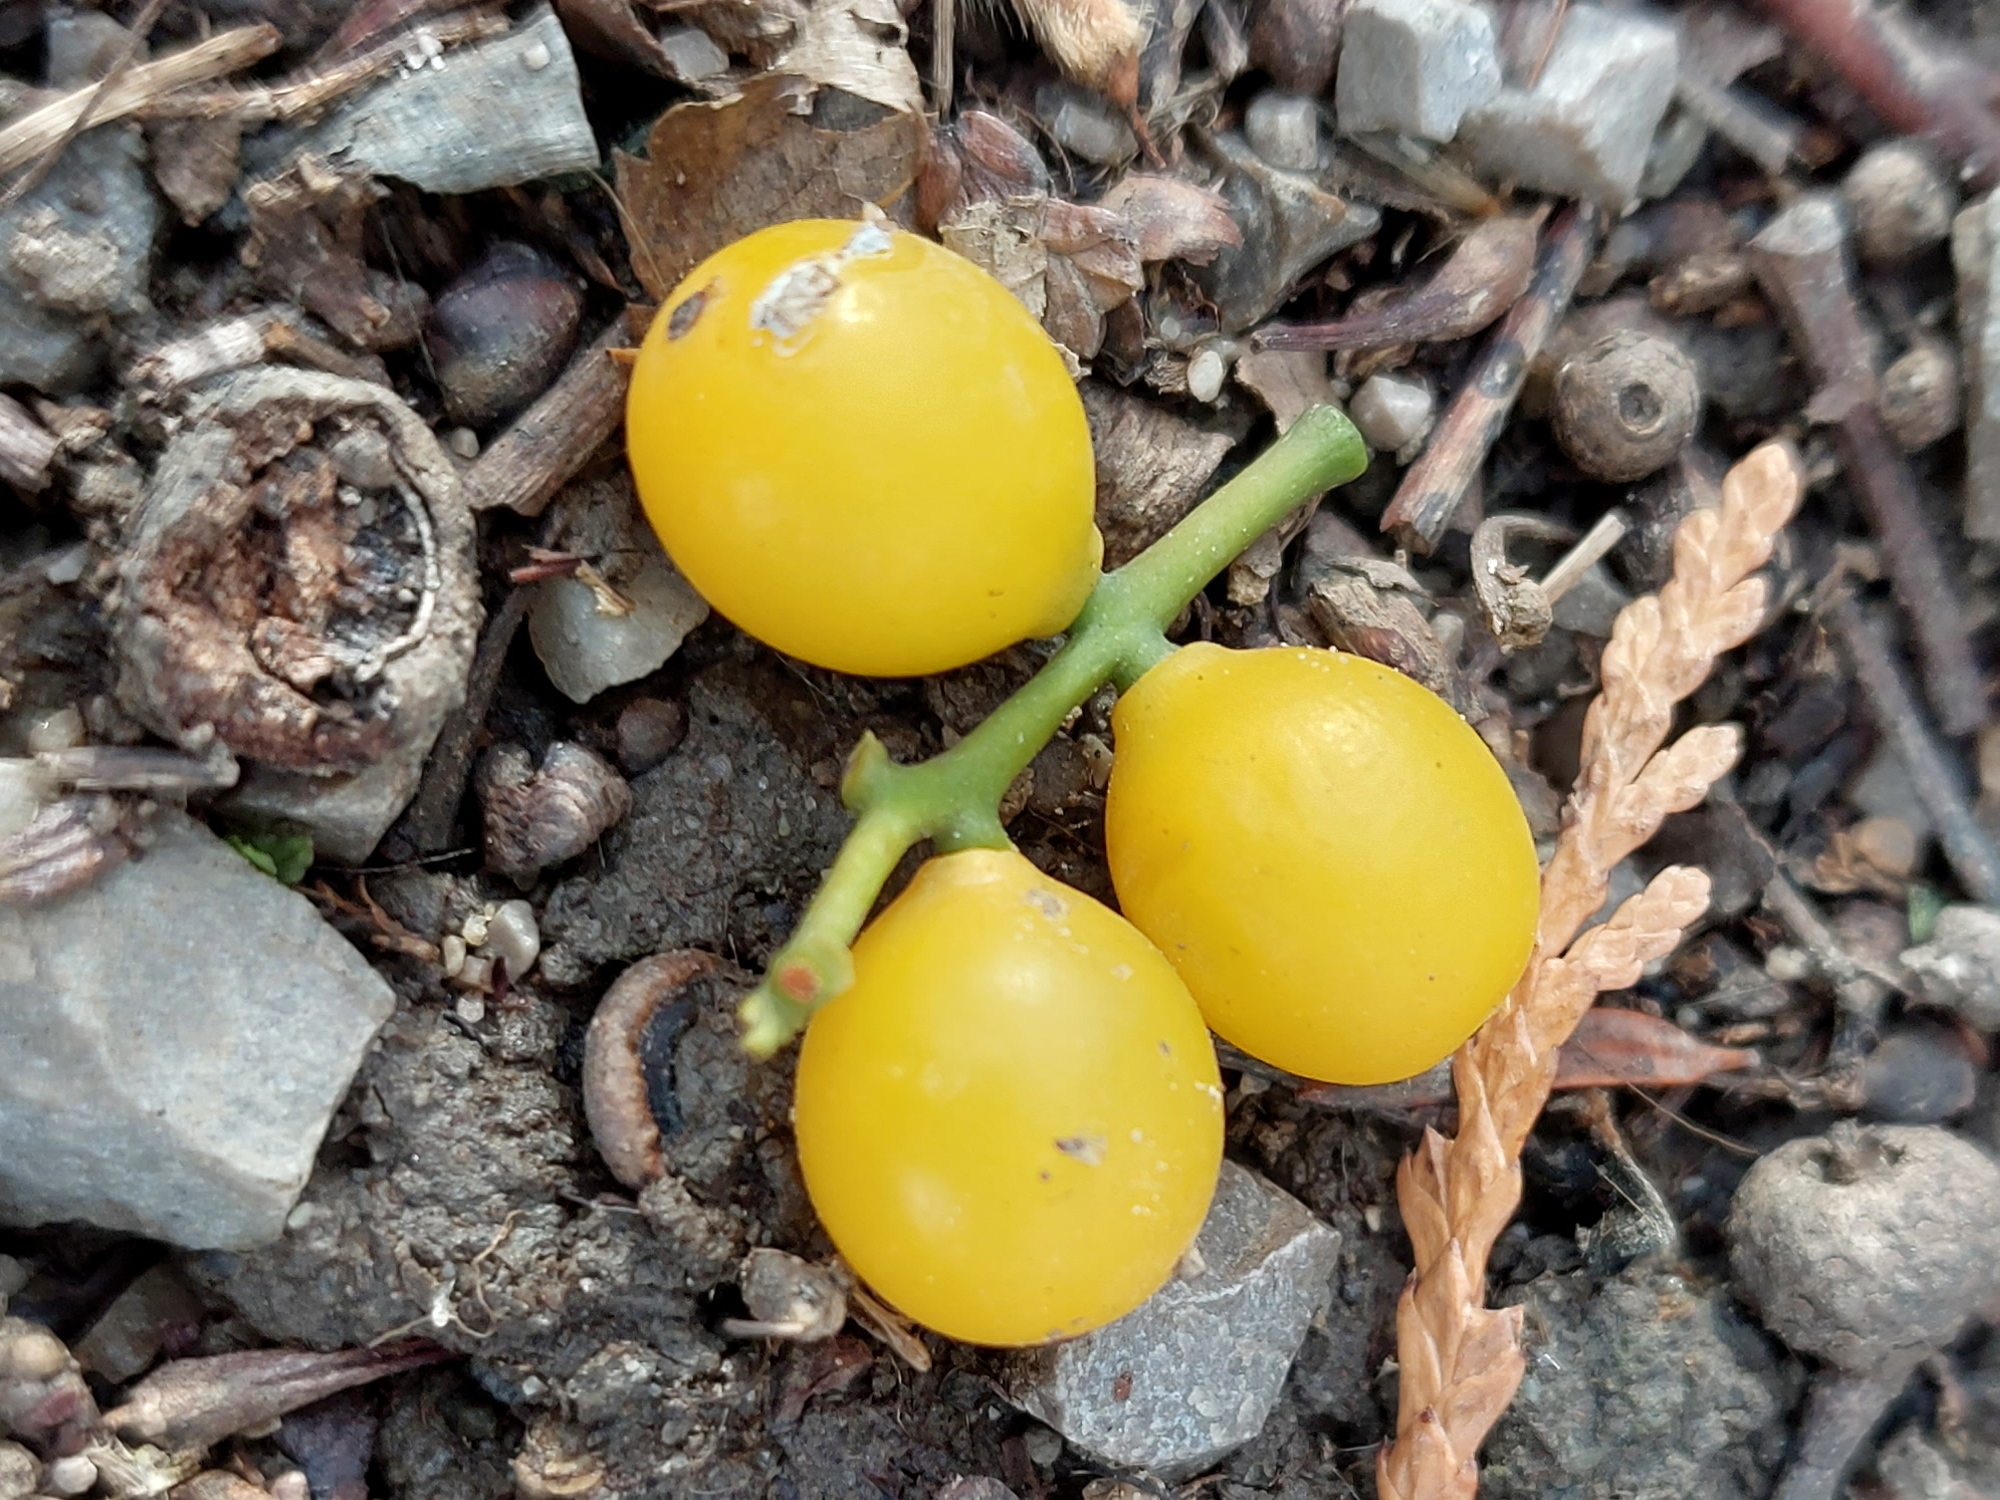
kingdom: Plantae
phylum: Tracheophyta
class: Magnoliopsida
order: Santalales
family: Loranthaceae
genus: Loranthus
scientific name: Loranthus europaeus
